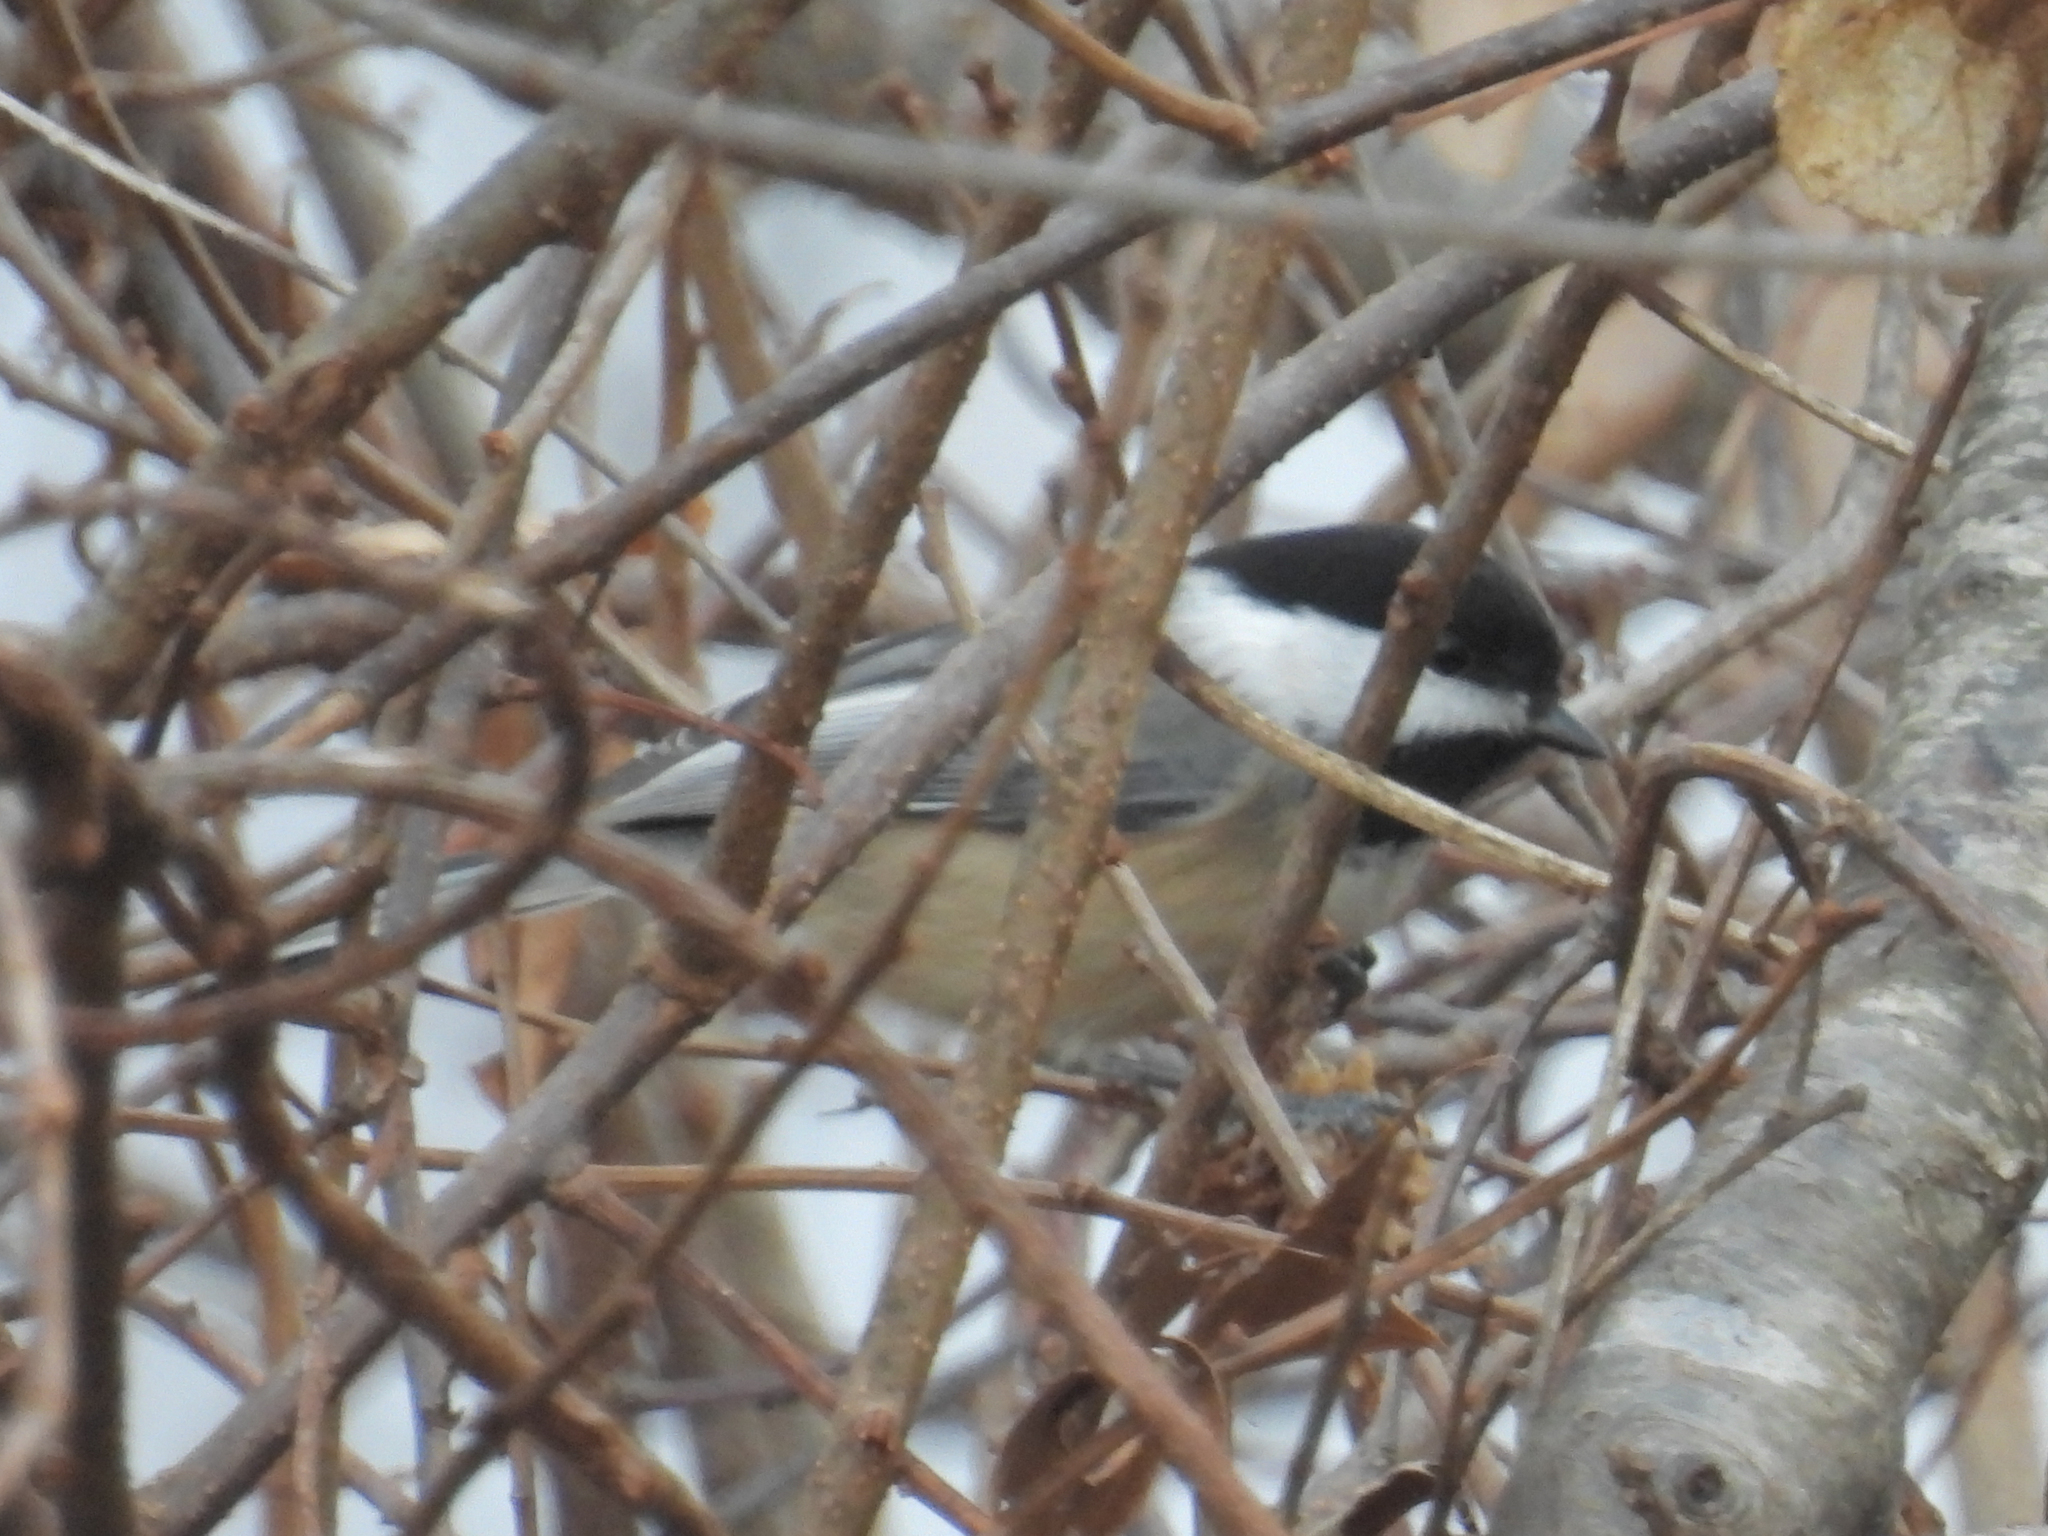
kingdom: Animalia
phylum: Chordata
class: Aves
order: Passeriformes
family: Paridae
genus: Poecile
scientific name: Poecile atricapillus
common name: Black-capped chickadee
